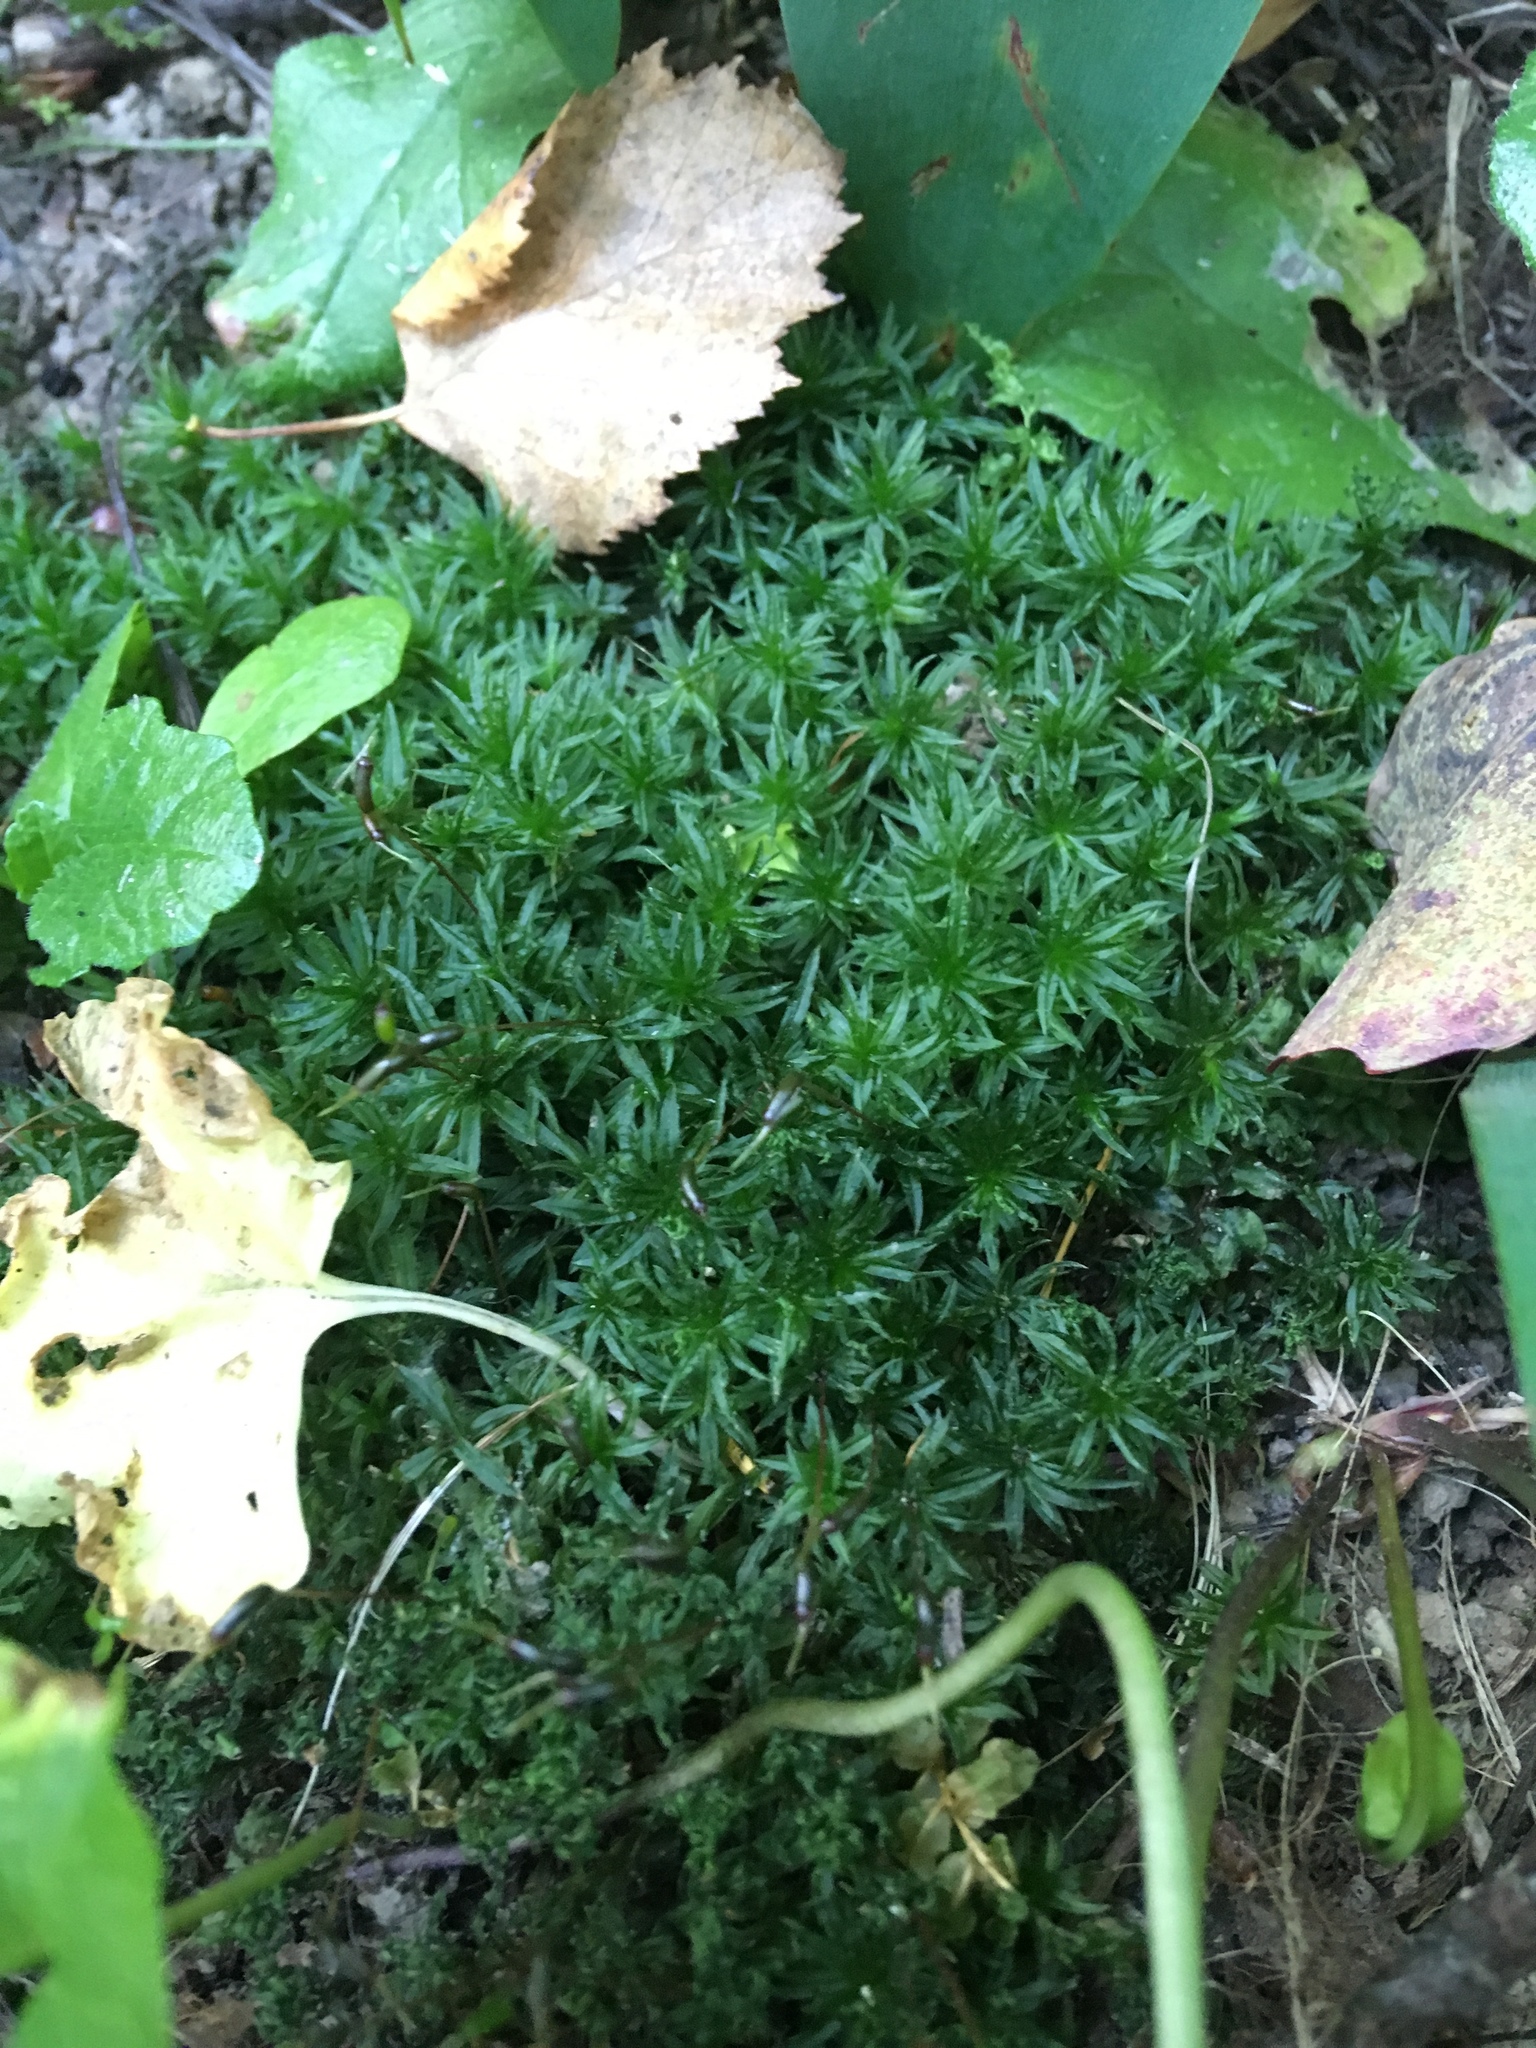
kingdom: Plantae
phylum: Bryophyta
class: Polytrichopsida
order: Polytrichales
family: Polytrichaceae
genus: Atrichum
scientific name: Atrichum undulatum
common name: Common smoothcap
